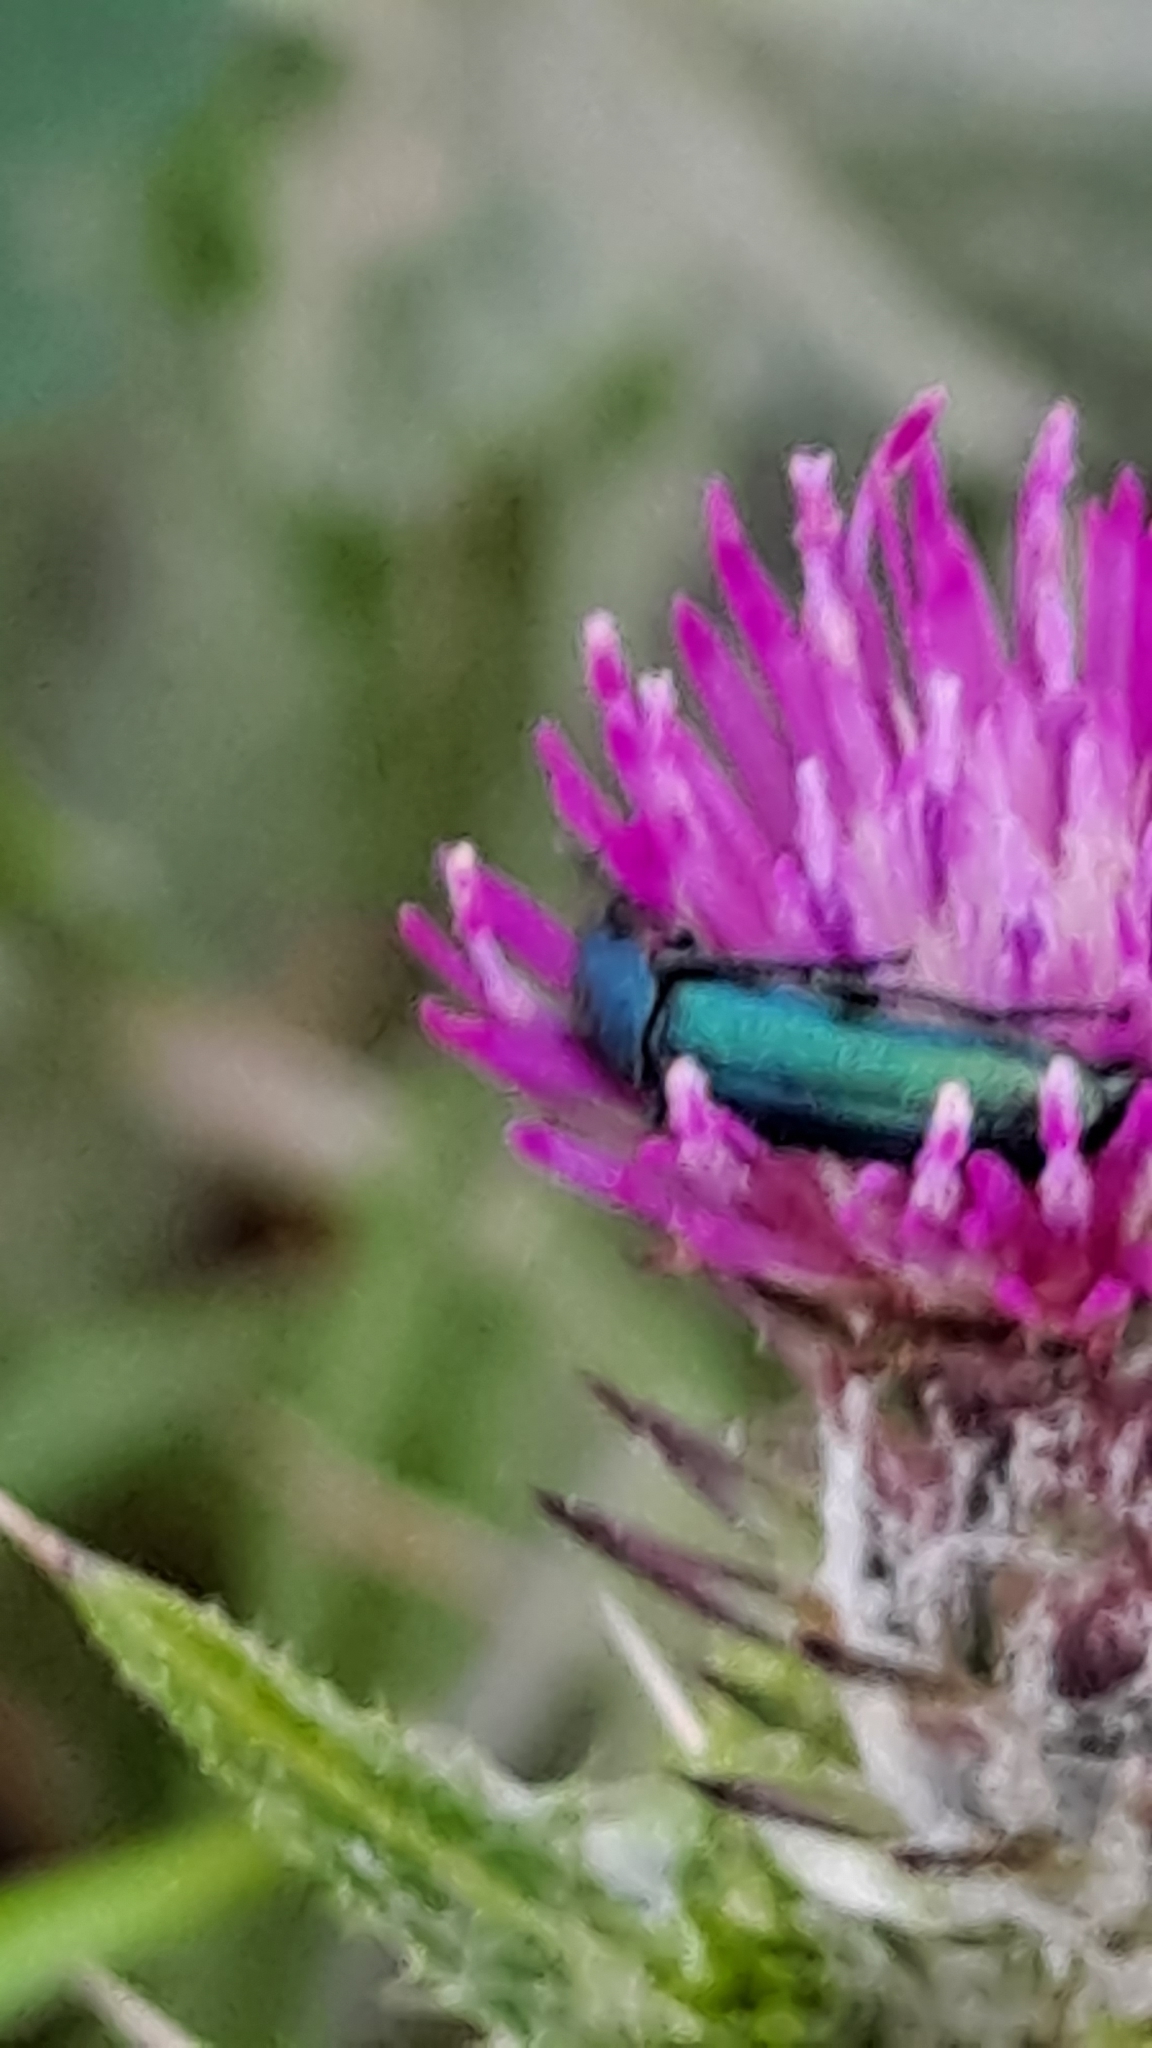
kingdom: Animalia
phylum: Arthropoda
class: Insecta
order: Coleoptera
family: Dasytidae
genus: Psilothrix
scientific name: Psilothrix viridicoerulea
